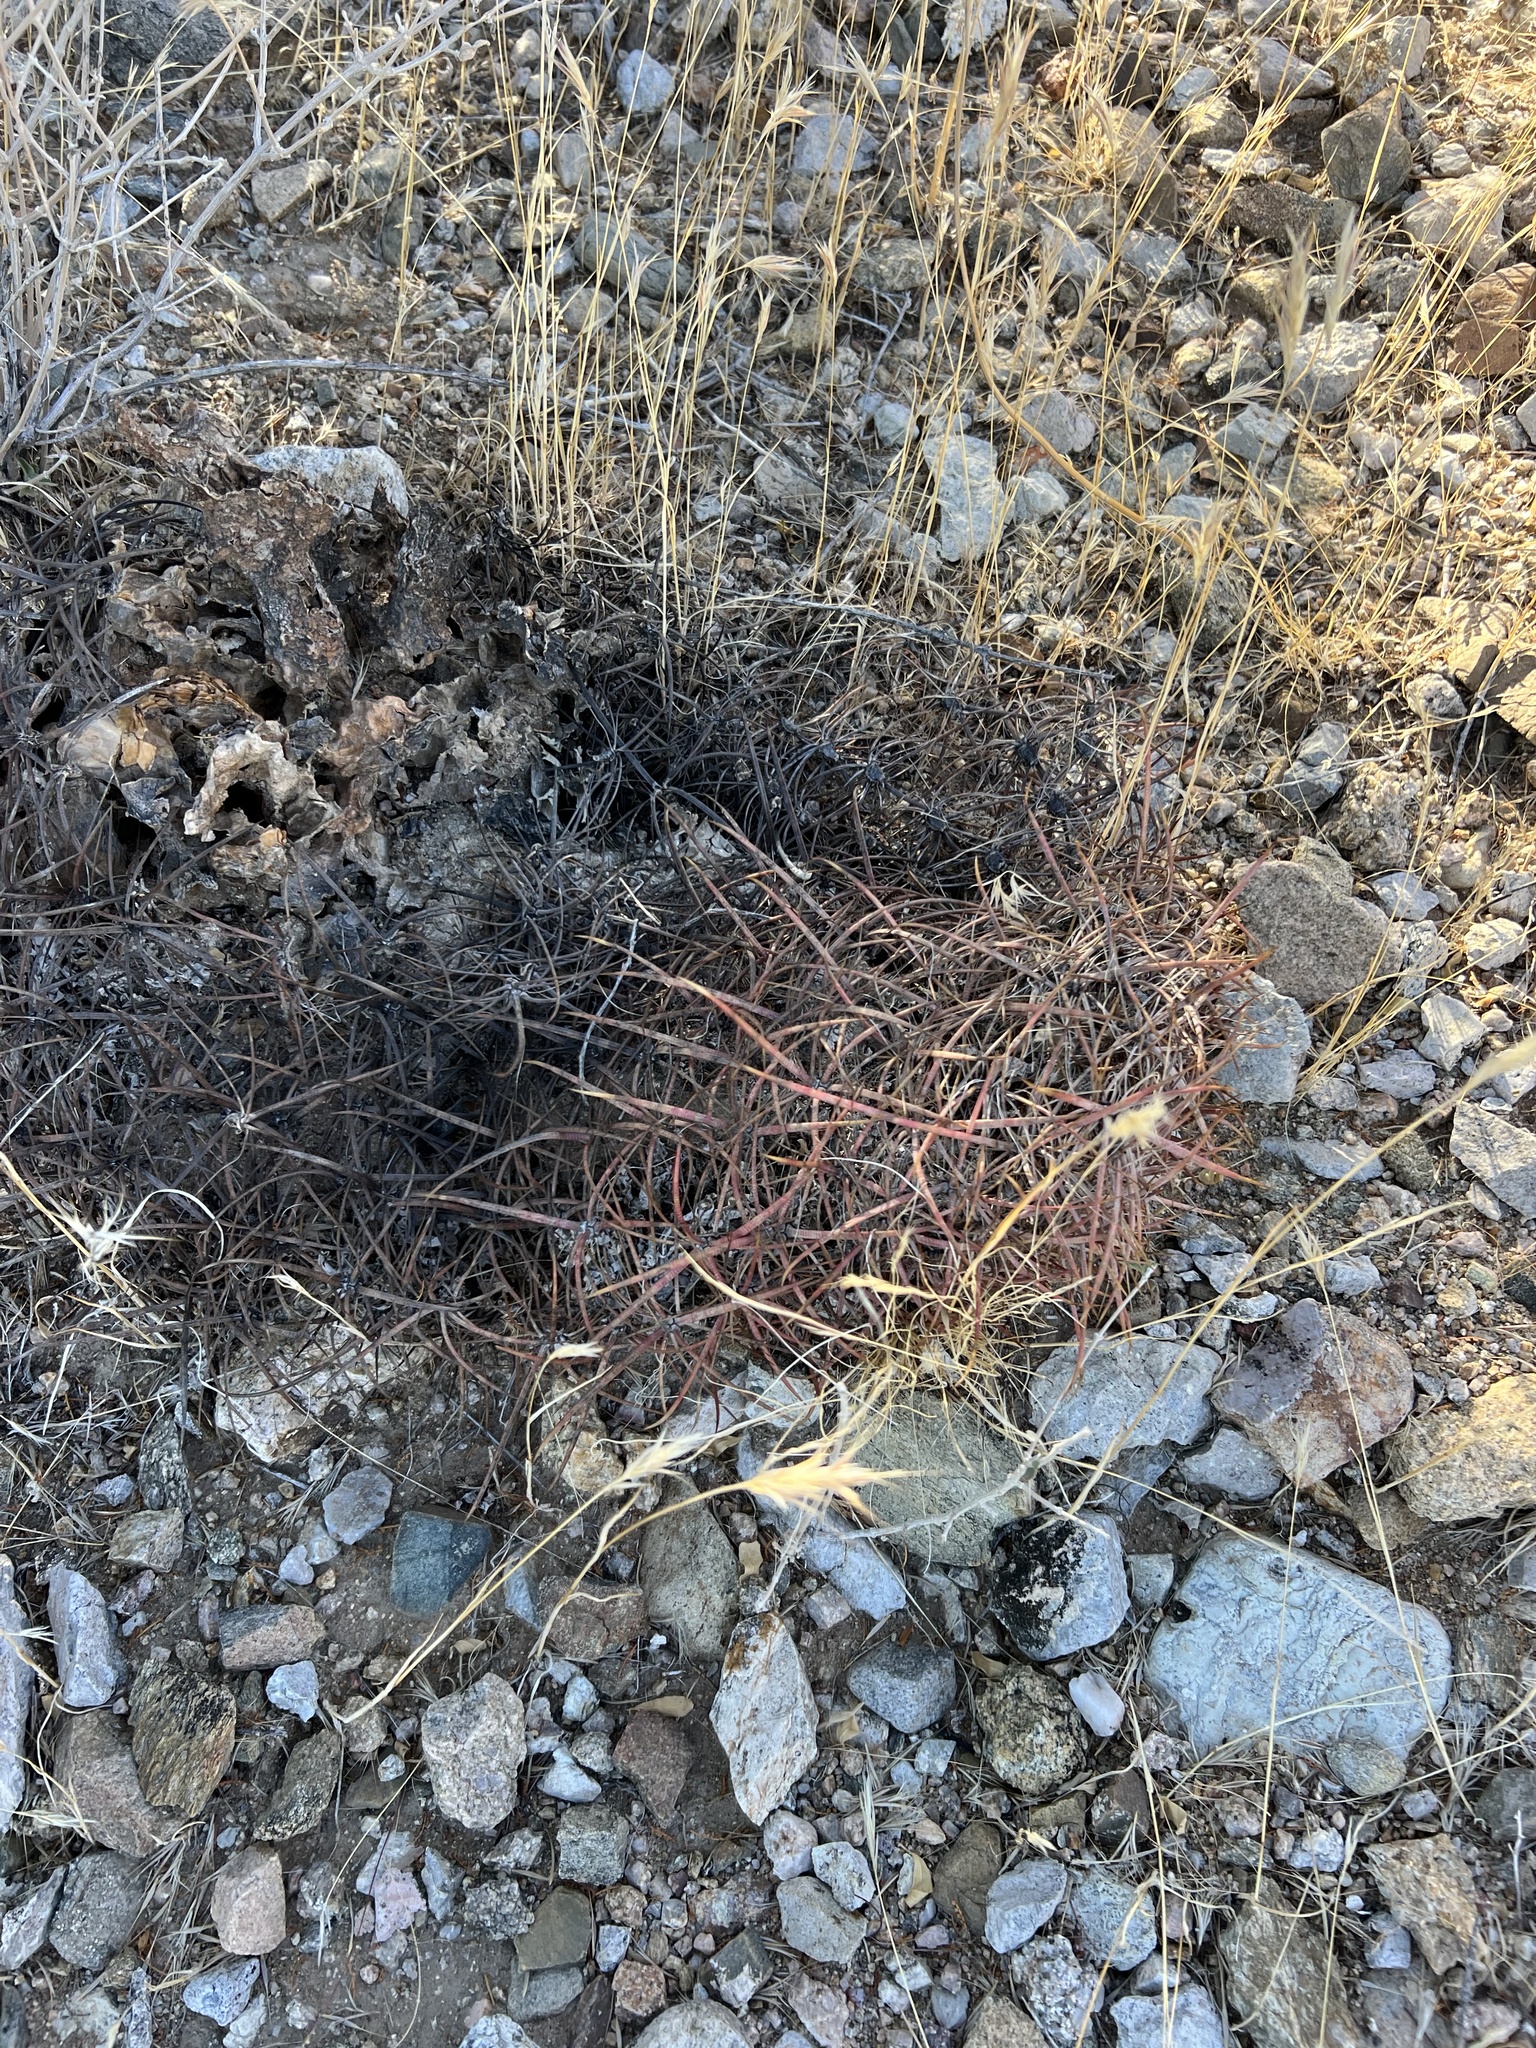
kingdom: Plantae
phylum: Tracheophyta
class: Magnoliopsida
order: Caryophyllales
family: Cactaceae
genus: Ferocactus
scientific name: Ferocactus cylindraceus
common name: California barrel cactus
